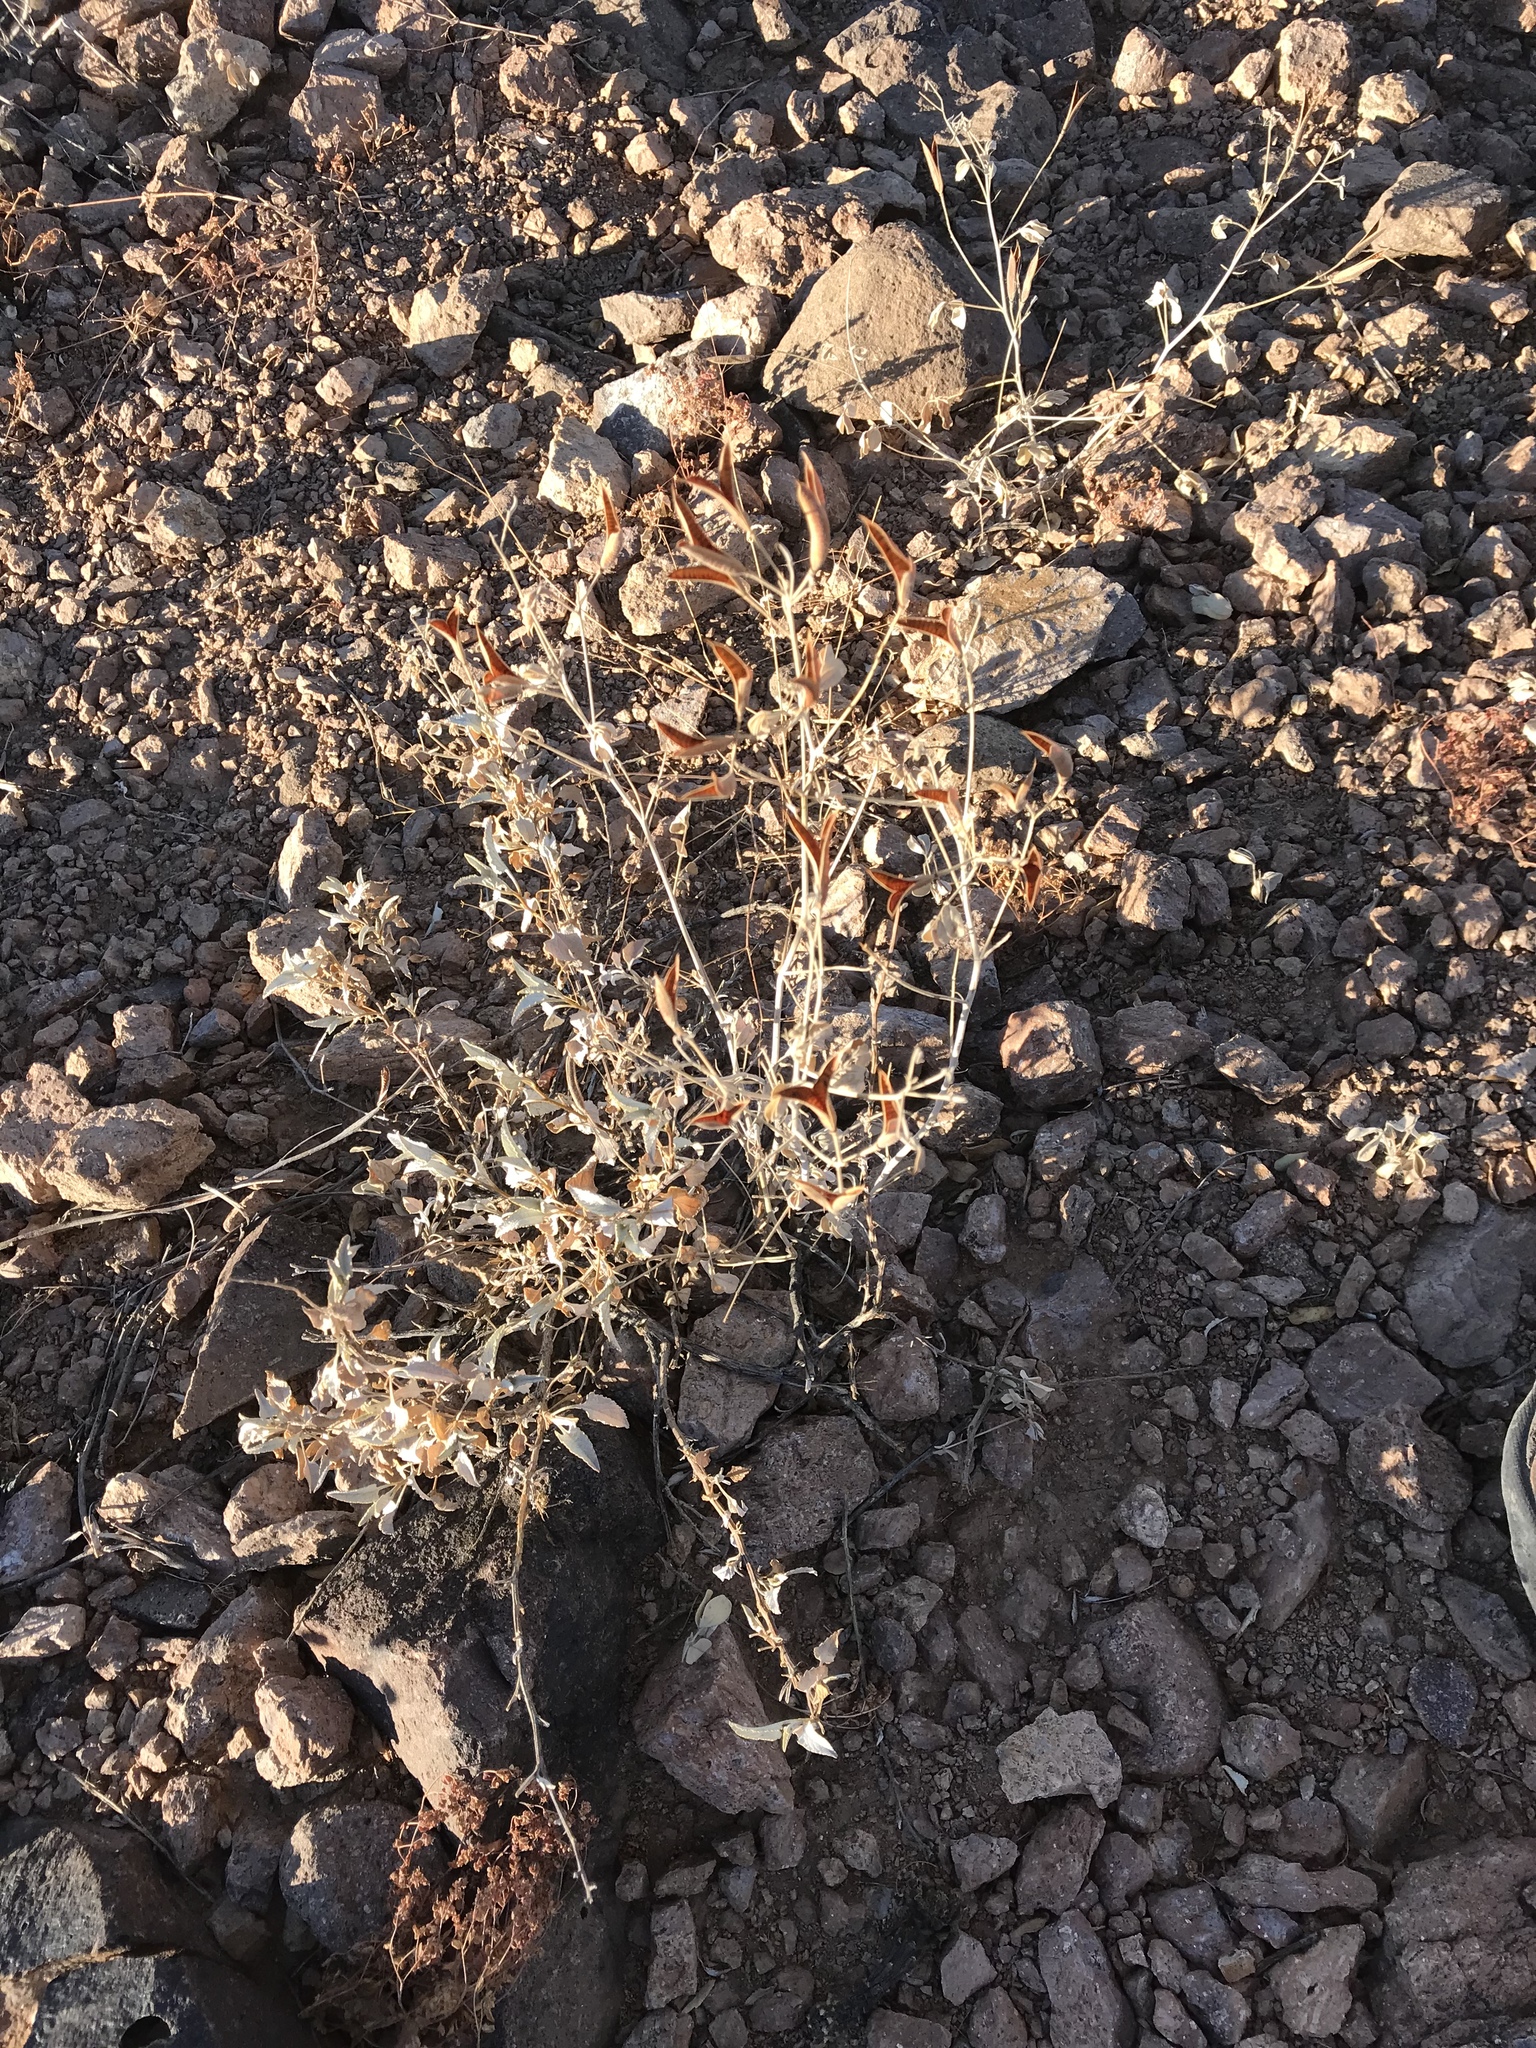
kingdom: Plantae
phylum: Tracheophyta
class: Magnoliopsida
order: Fabales
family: Fabaceae
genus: Senna
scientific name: Senna covesii
